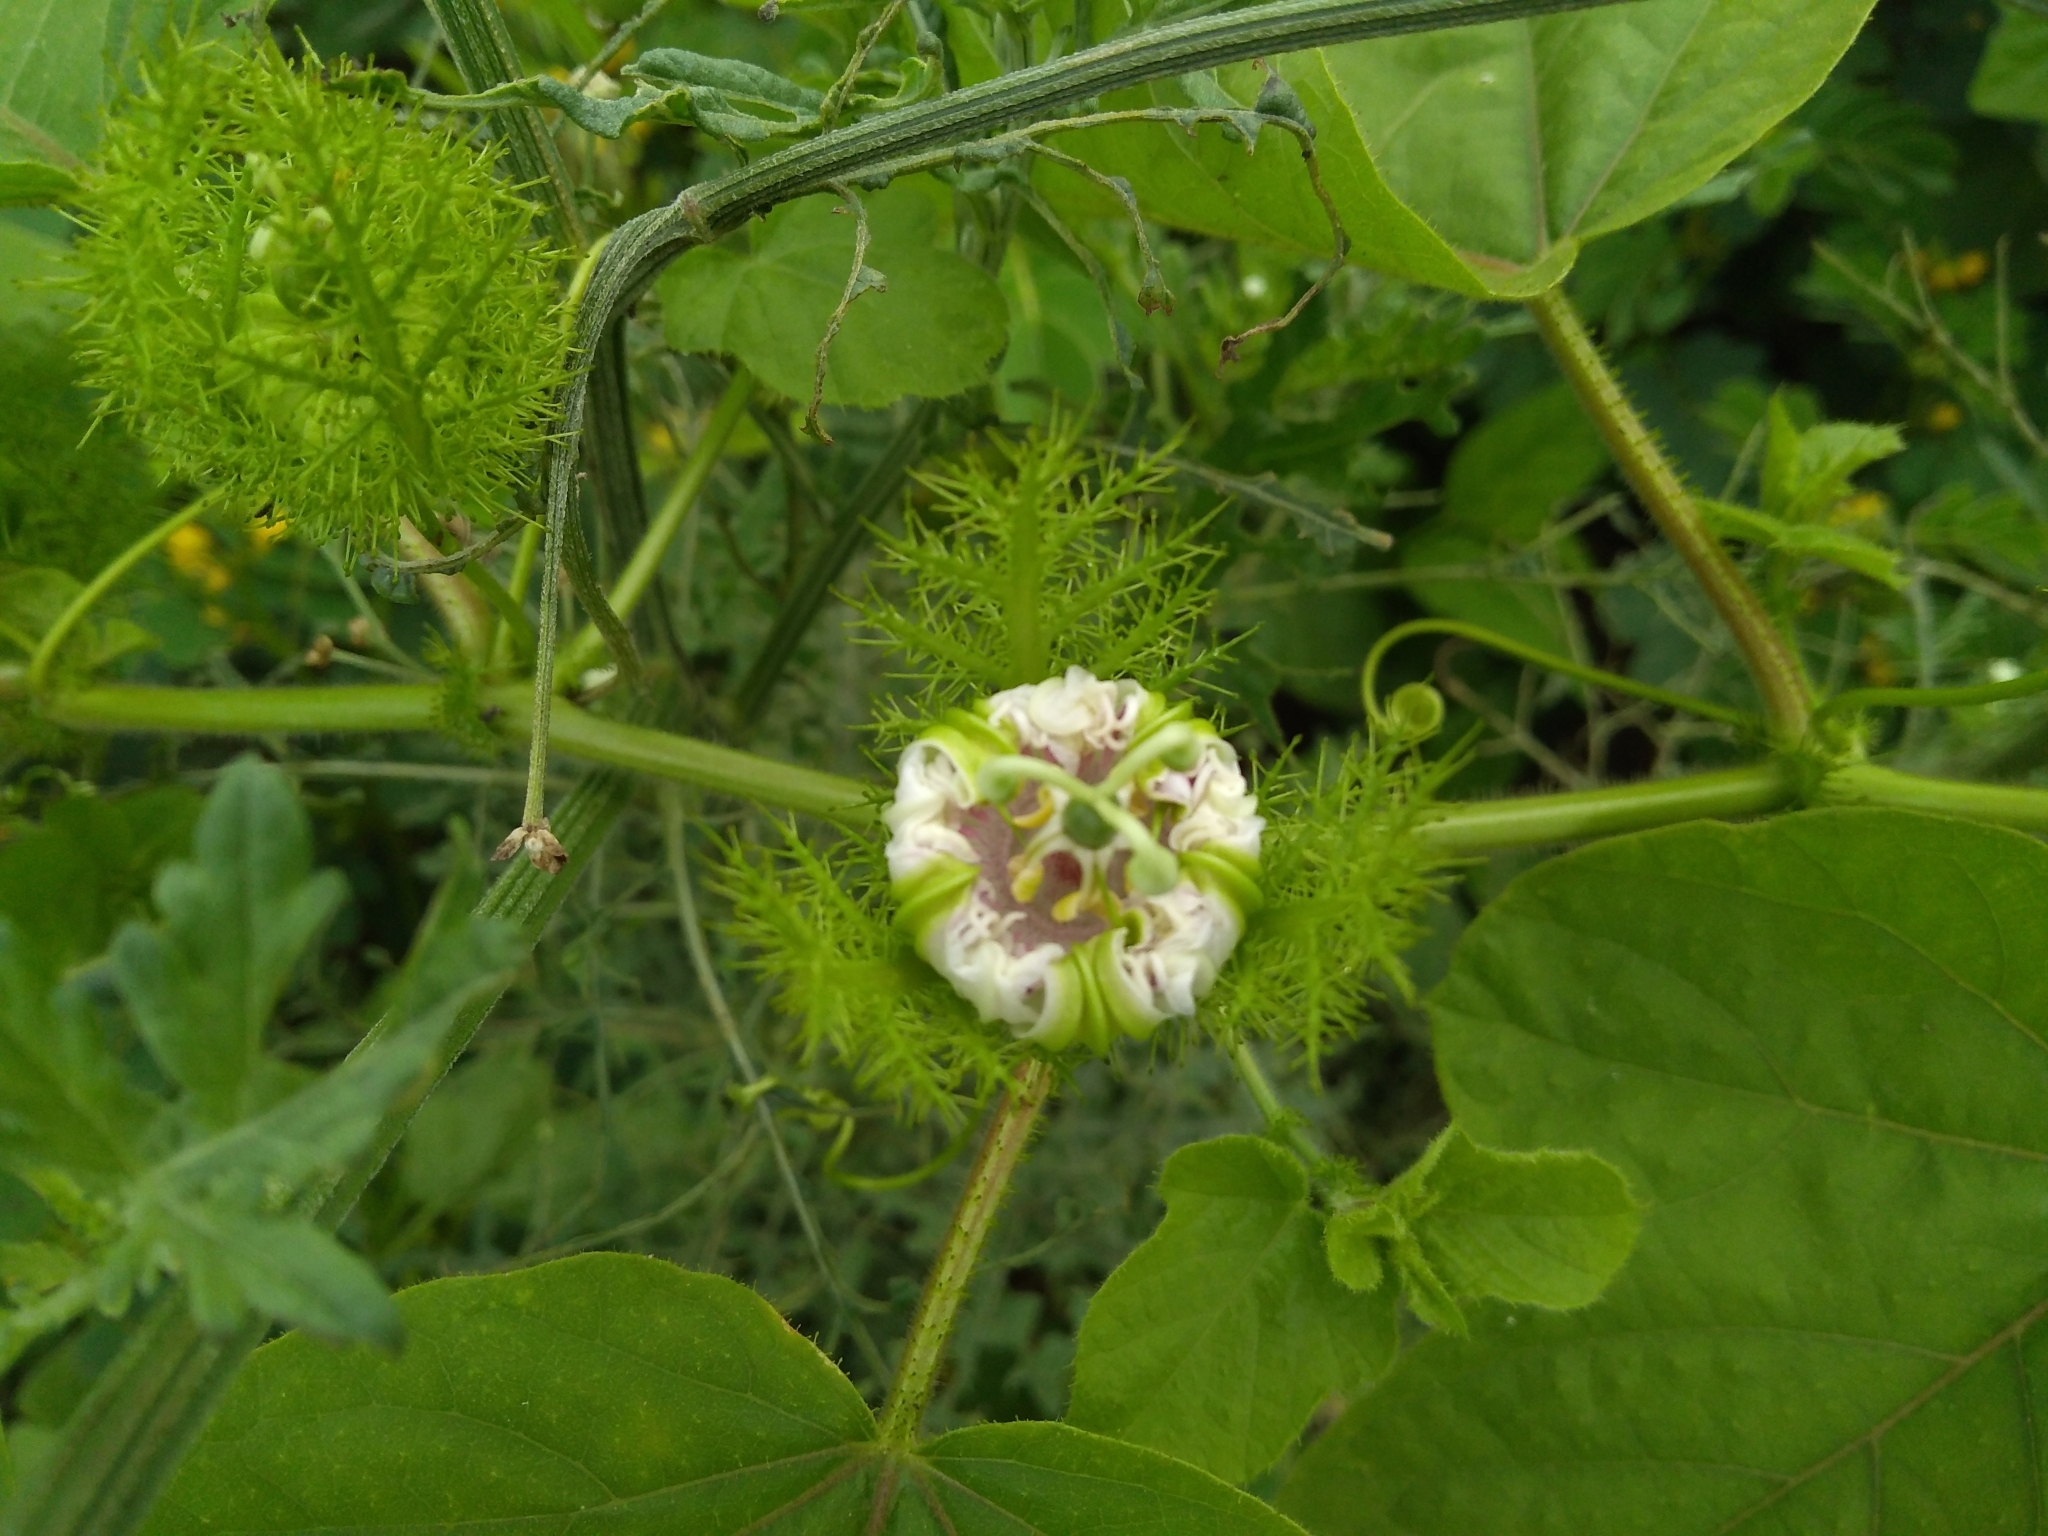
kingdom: Plantae
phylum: Tracheophyta
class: Magnoliopsida
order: Malpighiales
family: Passifloraceae
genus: Passiflora
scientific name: Passiflora foetida
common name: Fetid passionflower
